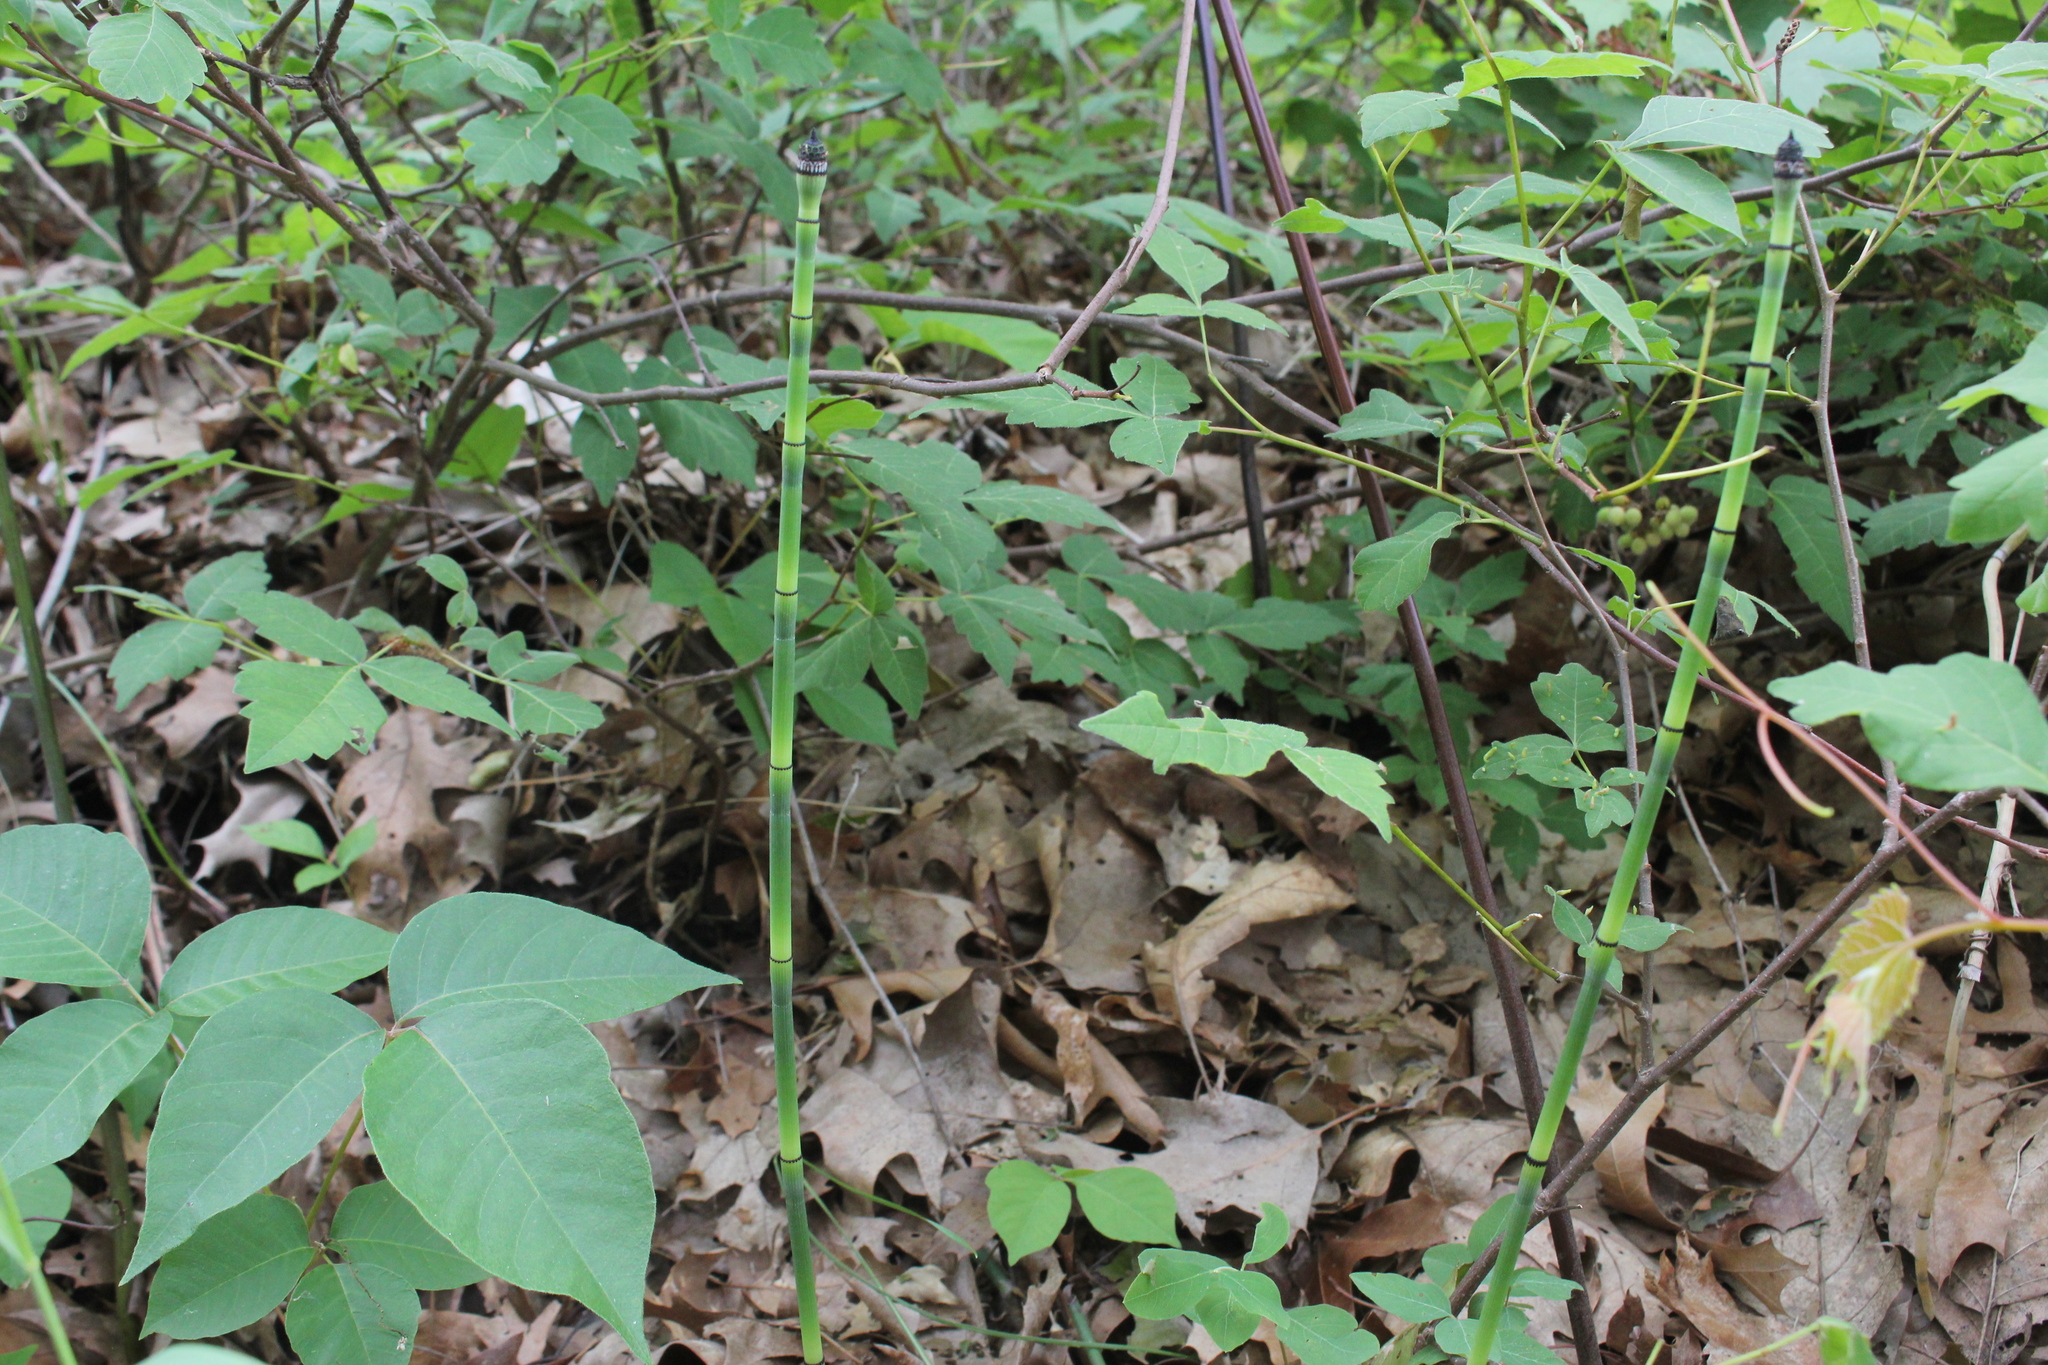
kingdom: Plantae
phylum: Tracheophyta
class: Polypodiopsida
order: Equisetales
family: Equisetaceae
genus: Equisetum
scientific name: Equisetum laevigatum
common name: Smooth scouring-rush
